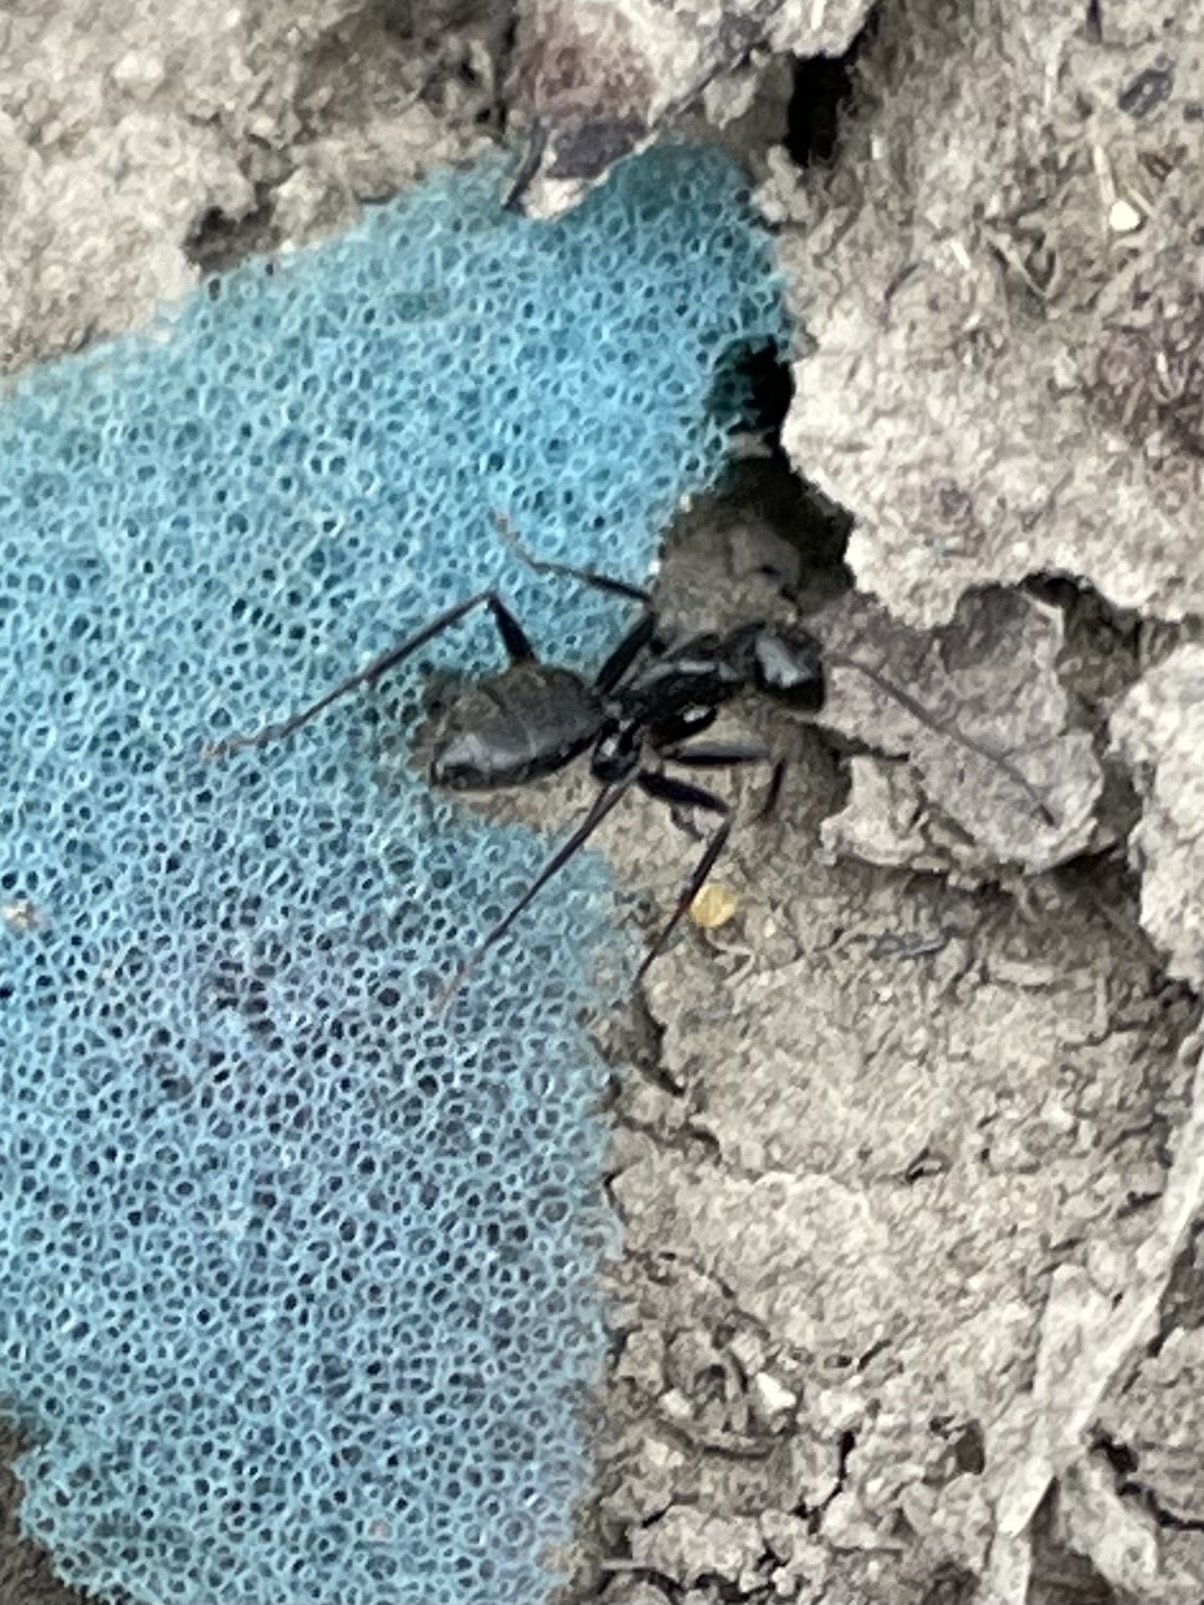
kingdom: Animalia
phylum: Arthropoda
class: Insecta
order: Hymenoptera
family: Formicidae
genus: Camponotus
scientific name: Camponotus pennsylvanicus
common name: Black carpenter ant
